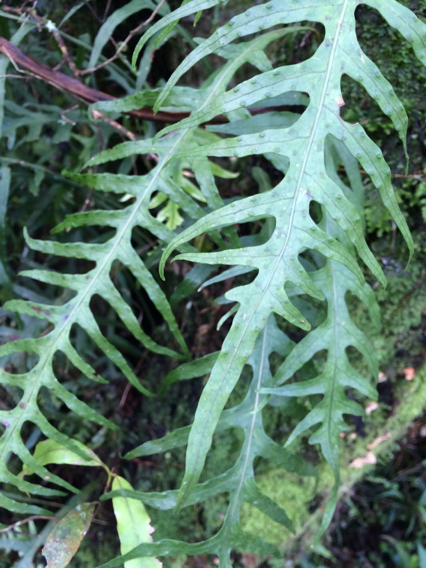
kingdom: Plantae
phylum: Tracheophyta
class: Polypodiopsida
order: Polypodiales
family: Polypodiaceae
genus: Lecanopteris
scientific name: Lecanopteris scandens
